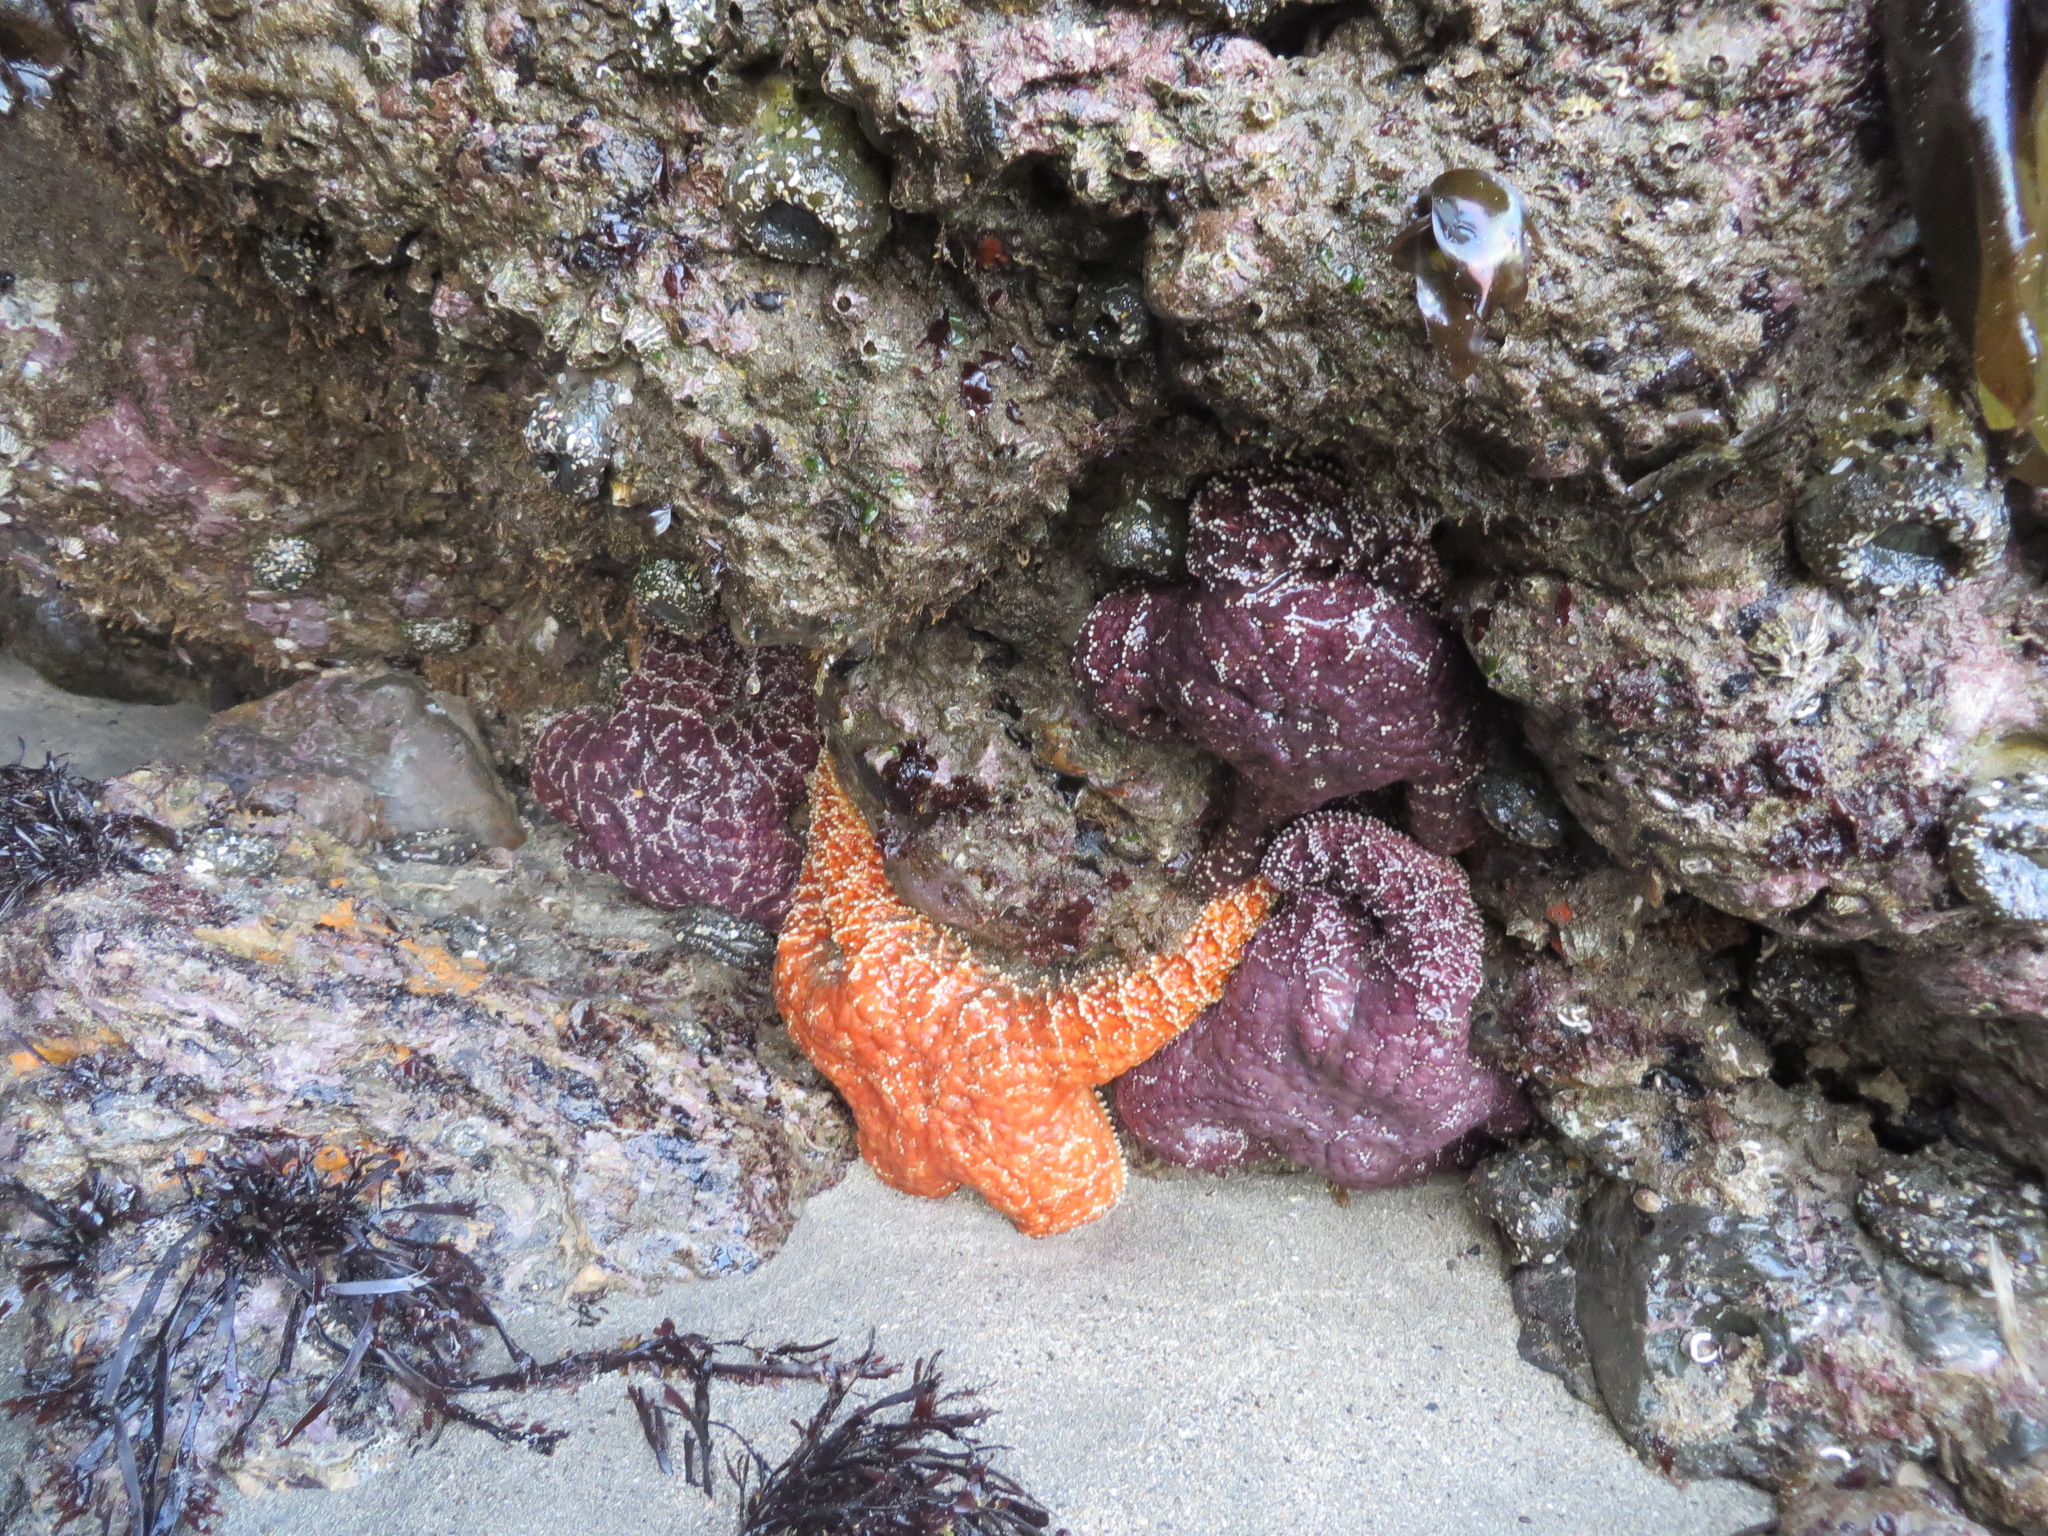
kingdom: Animalia
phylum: Echinodermata
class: Asteroidea
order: Forcipulatida
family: Asteriidae
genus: Pisaster
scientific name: Pisaster ochraceus
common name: Ochre stars
